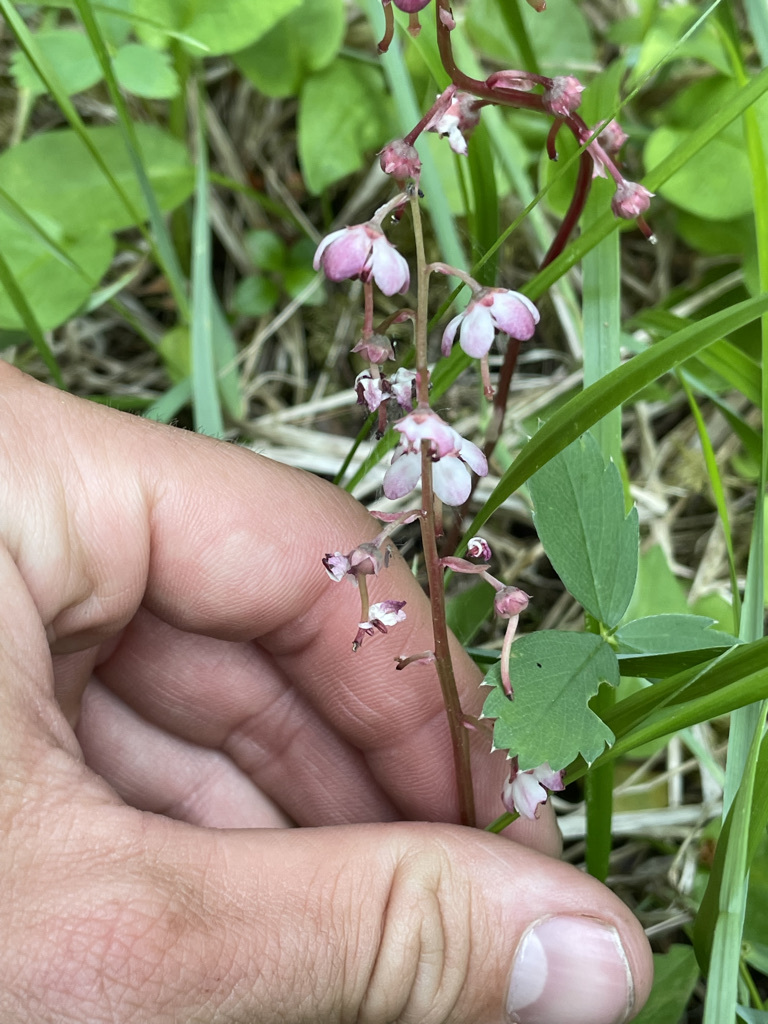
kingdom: Plantae
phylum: Tracheophyta
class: Magnoliopsida
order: Ericales
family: Ericaceae
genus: Pyrola
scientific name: Pyrola asarifolia
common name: Bog wintergreen
